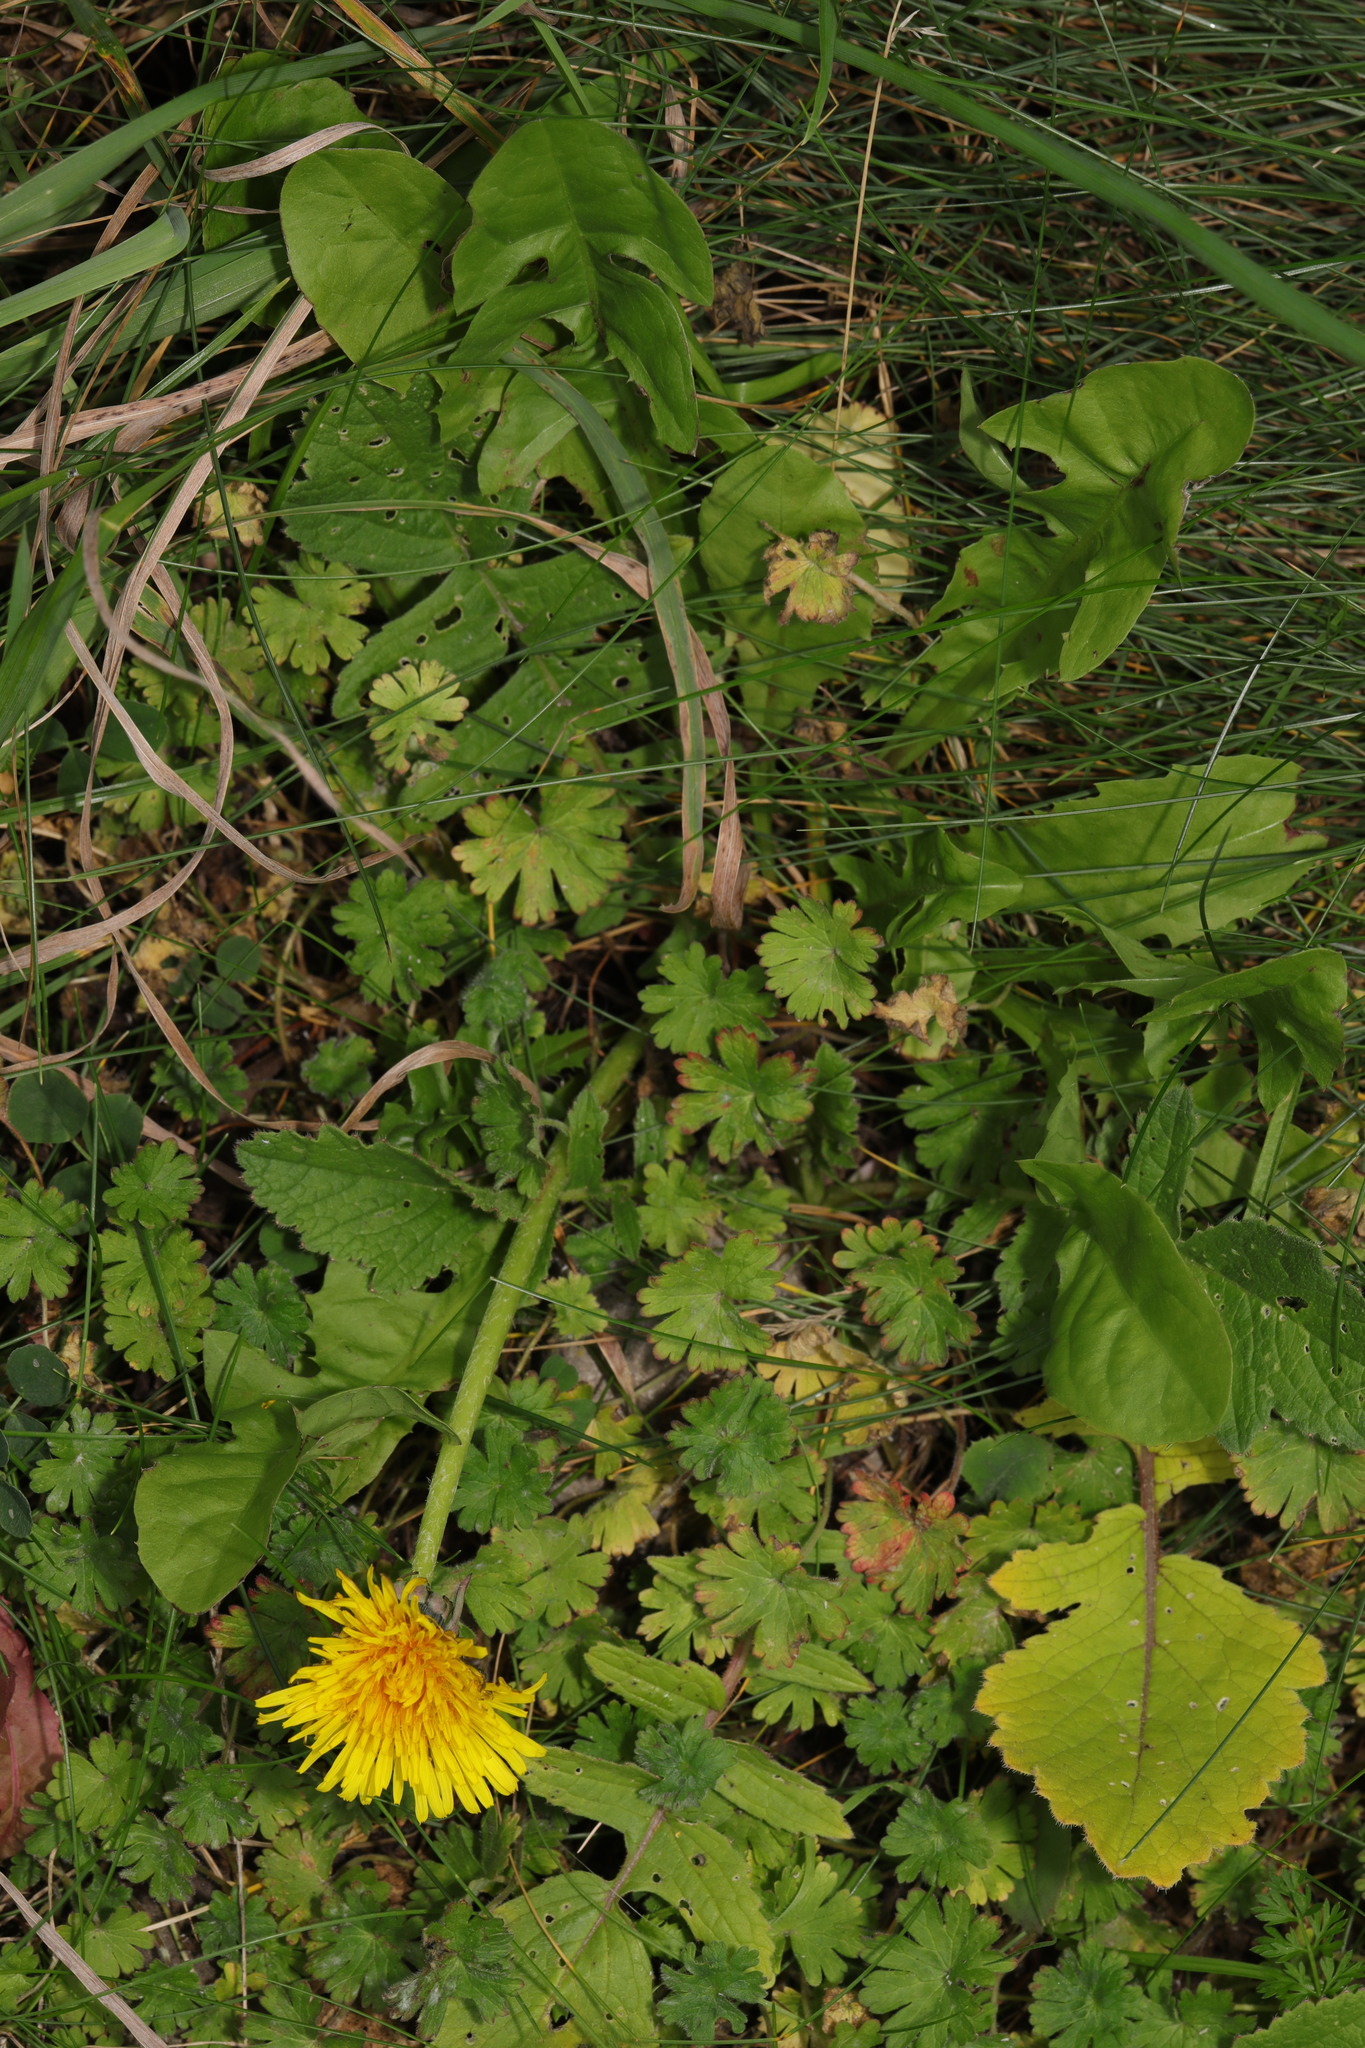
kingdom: Plantae
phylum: Tracheophyta
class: Magnoliopsida
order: Asterales
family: Asteraceae
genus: Taraxacum
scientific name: Taraxacum officinale
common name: Common dandelion
